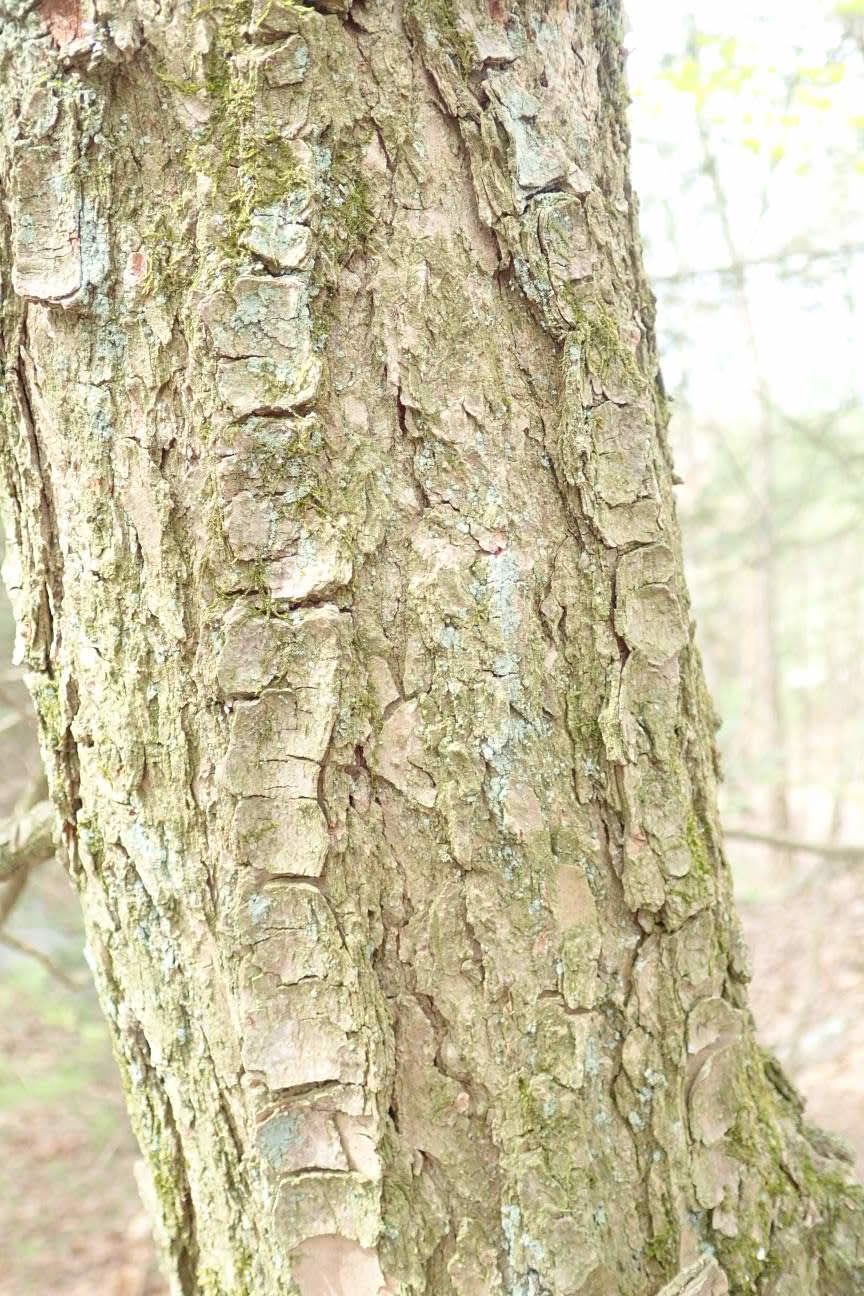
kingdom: Plantae
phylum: Tracheophyta
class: Pinopsida
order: Pinales
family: Pinaceae
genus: Tsuga
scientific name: Tsuga canadensis
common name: Eastern hemlock
